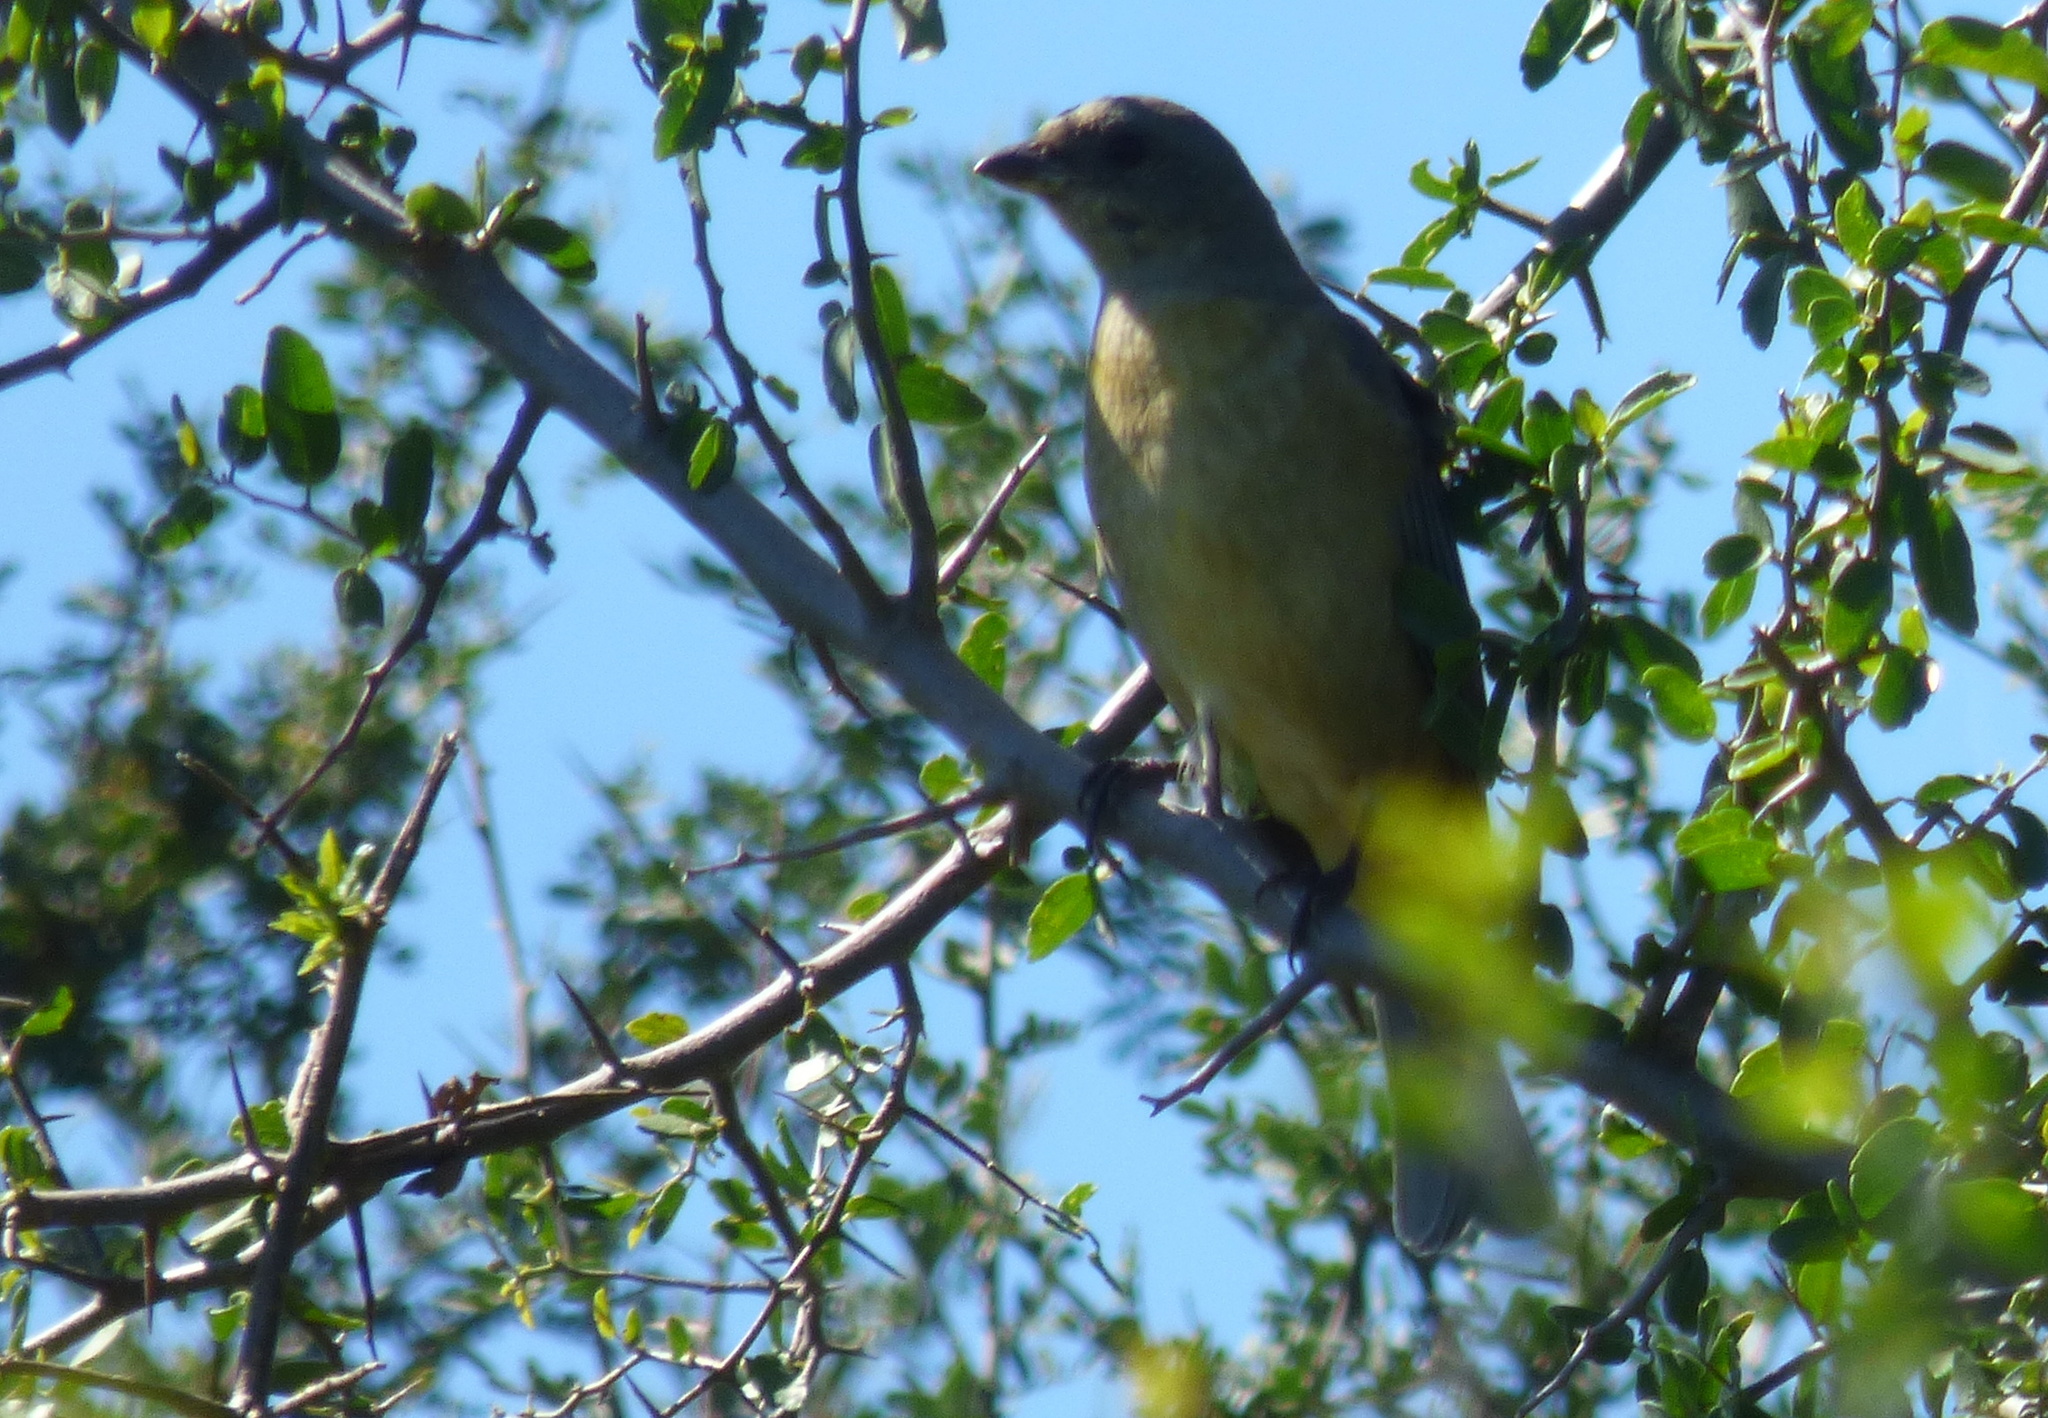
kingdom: Animalia
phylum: Chordata
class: Aves
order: Passeriformes
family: Thraupidae
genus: Rauenia
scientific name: Rauenia bonariensis
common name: Blue-and-yellow tanager
